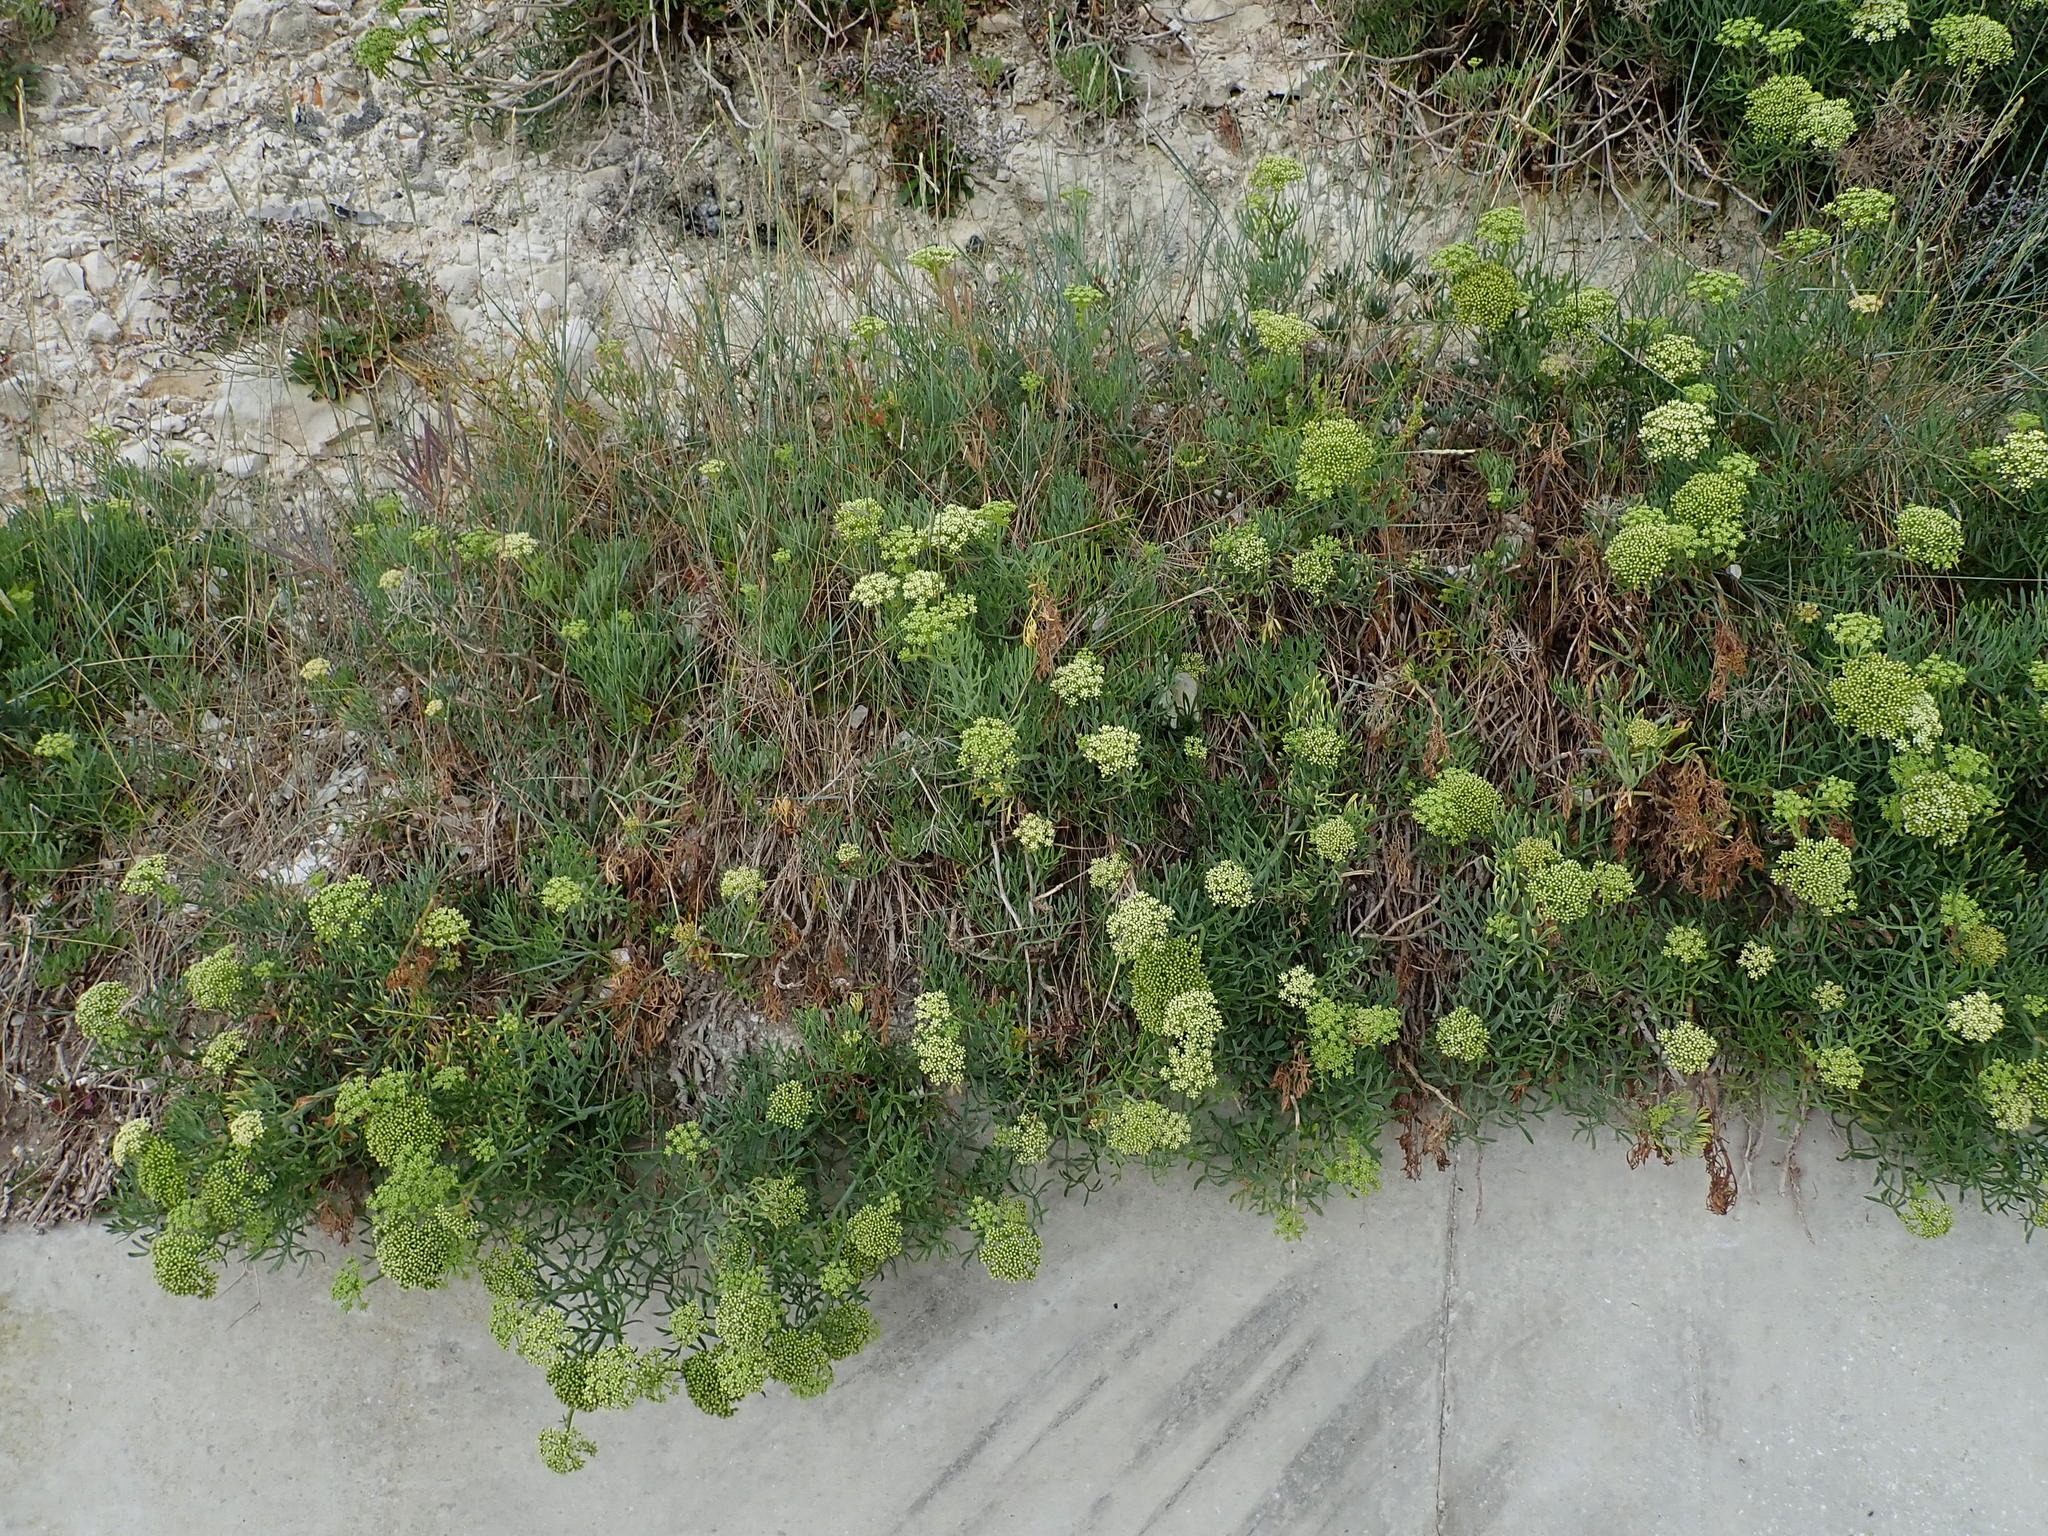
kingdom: Plantae
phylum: Tracheophyta
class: Magnoliopsida
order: Apiales
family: Apiaceae
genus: Crithmum
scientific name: Crithmum maritimum
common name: Rock samphire
